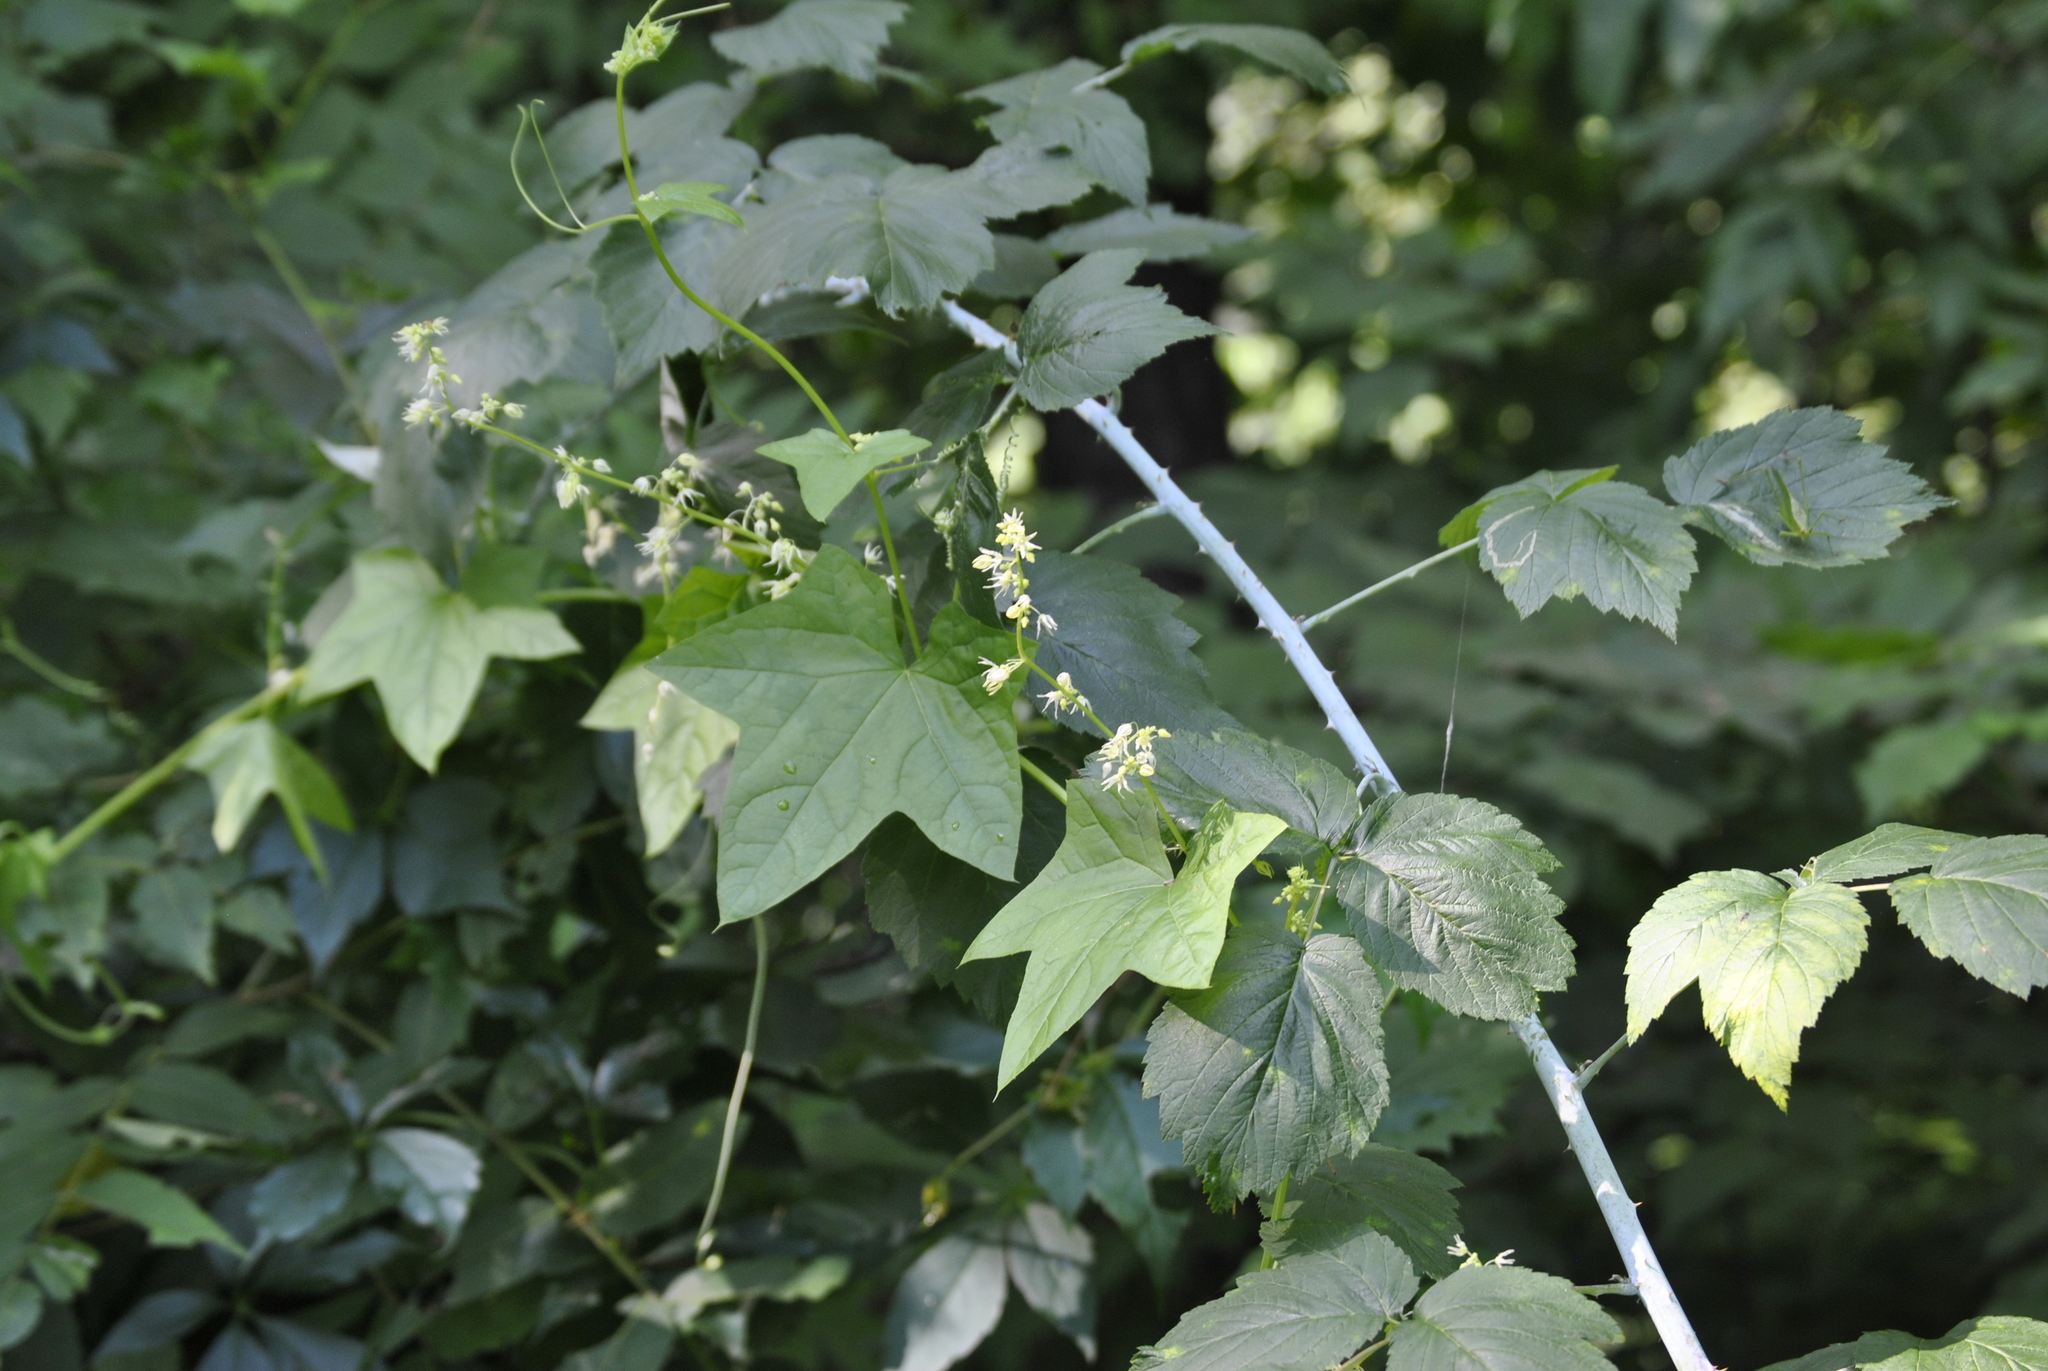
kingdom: Plantae
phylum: Tracheophyta
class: Magnoliopsida
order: Cucurbitales
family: Cucurbitaceae
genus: Echinocystis
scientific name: Echinocystis lobata
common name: Wild cucumber
